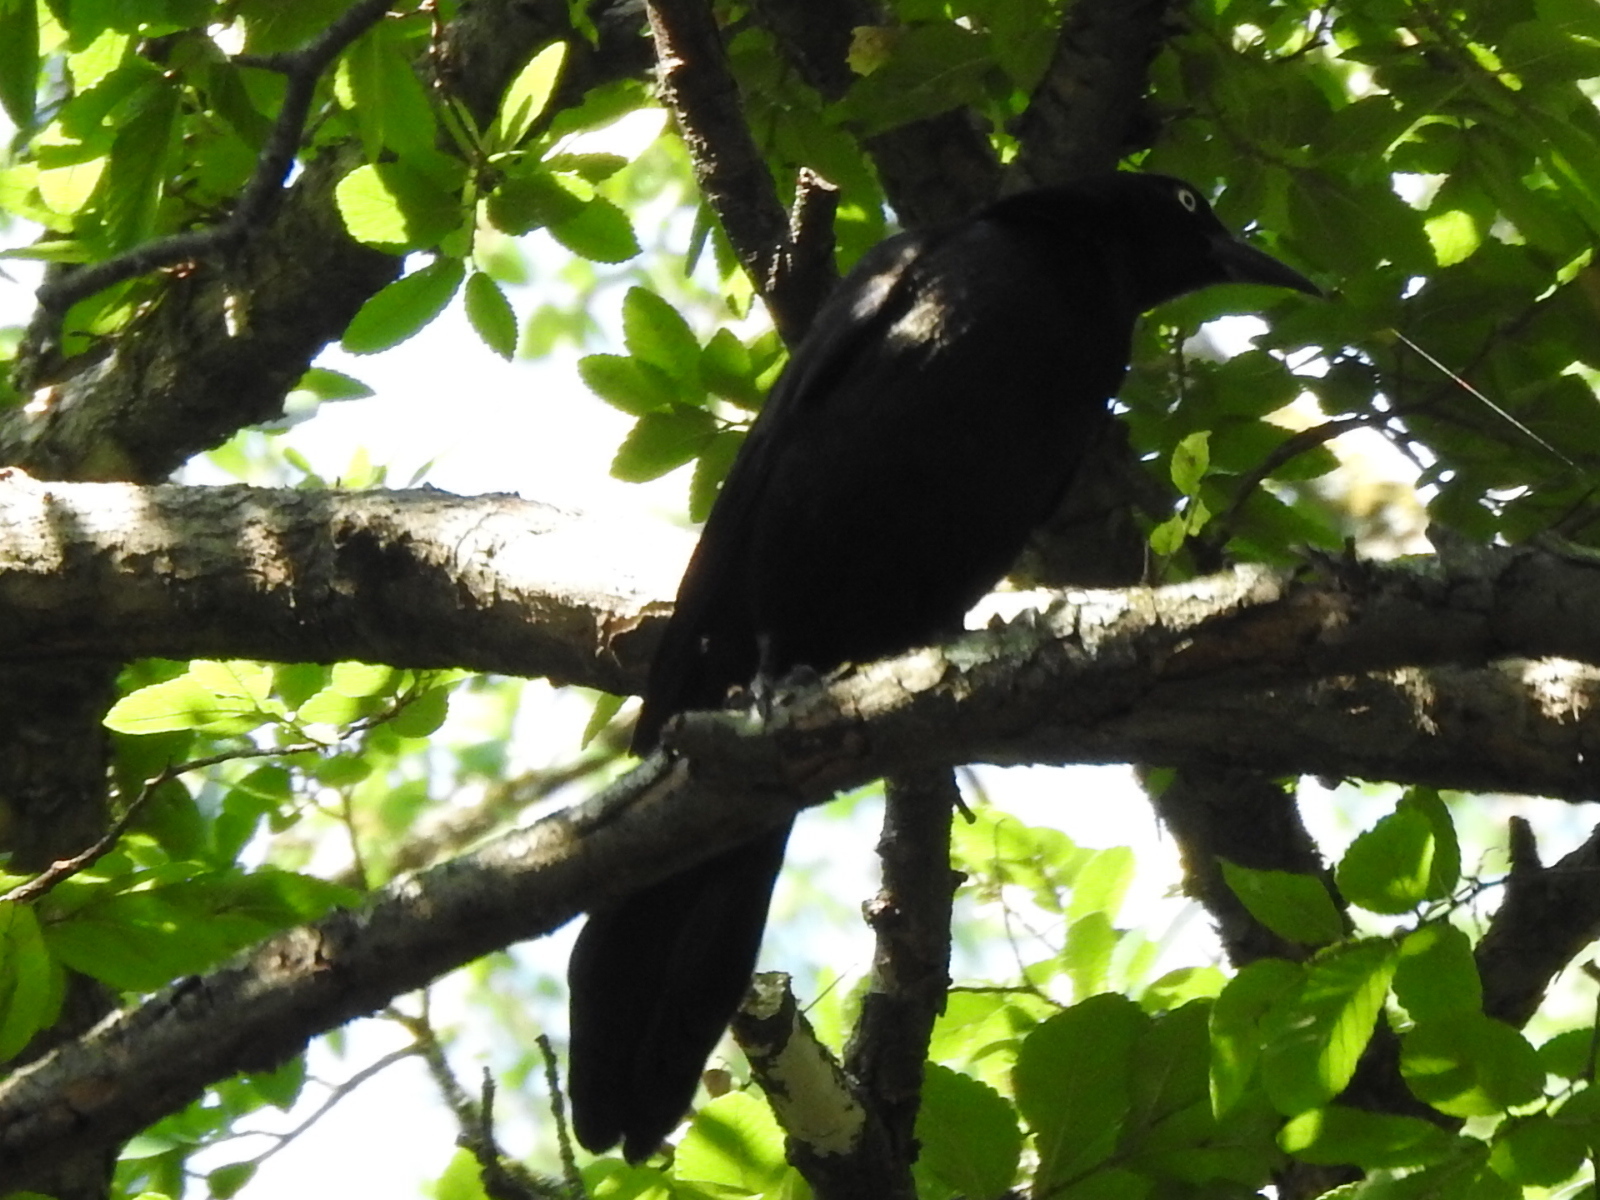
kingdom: Animalia
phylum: Chordata
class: Aves
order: Passeriformes
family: Icteridae
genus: Quiscalus
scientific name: Quiscalus mexicanus
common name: Great-tailed grackle
